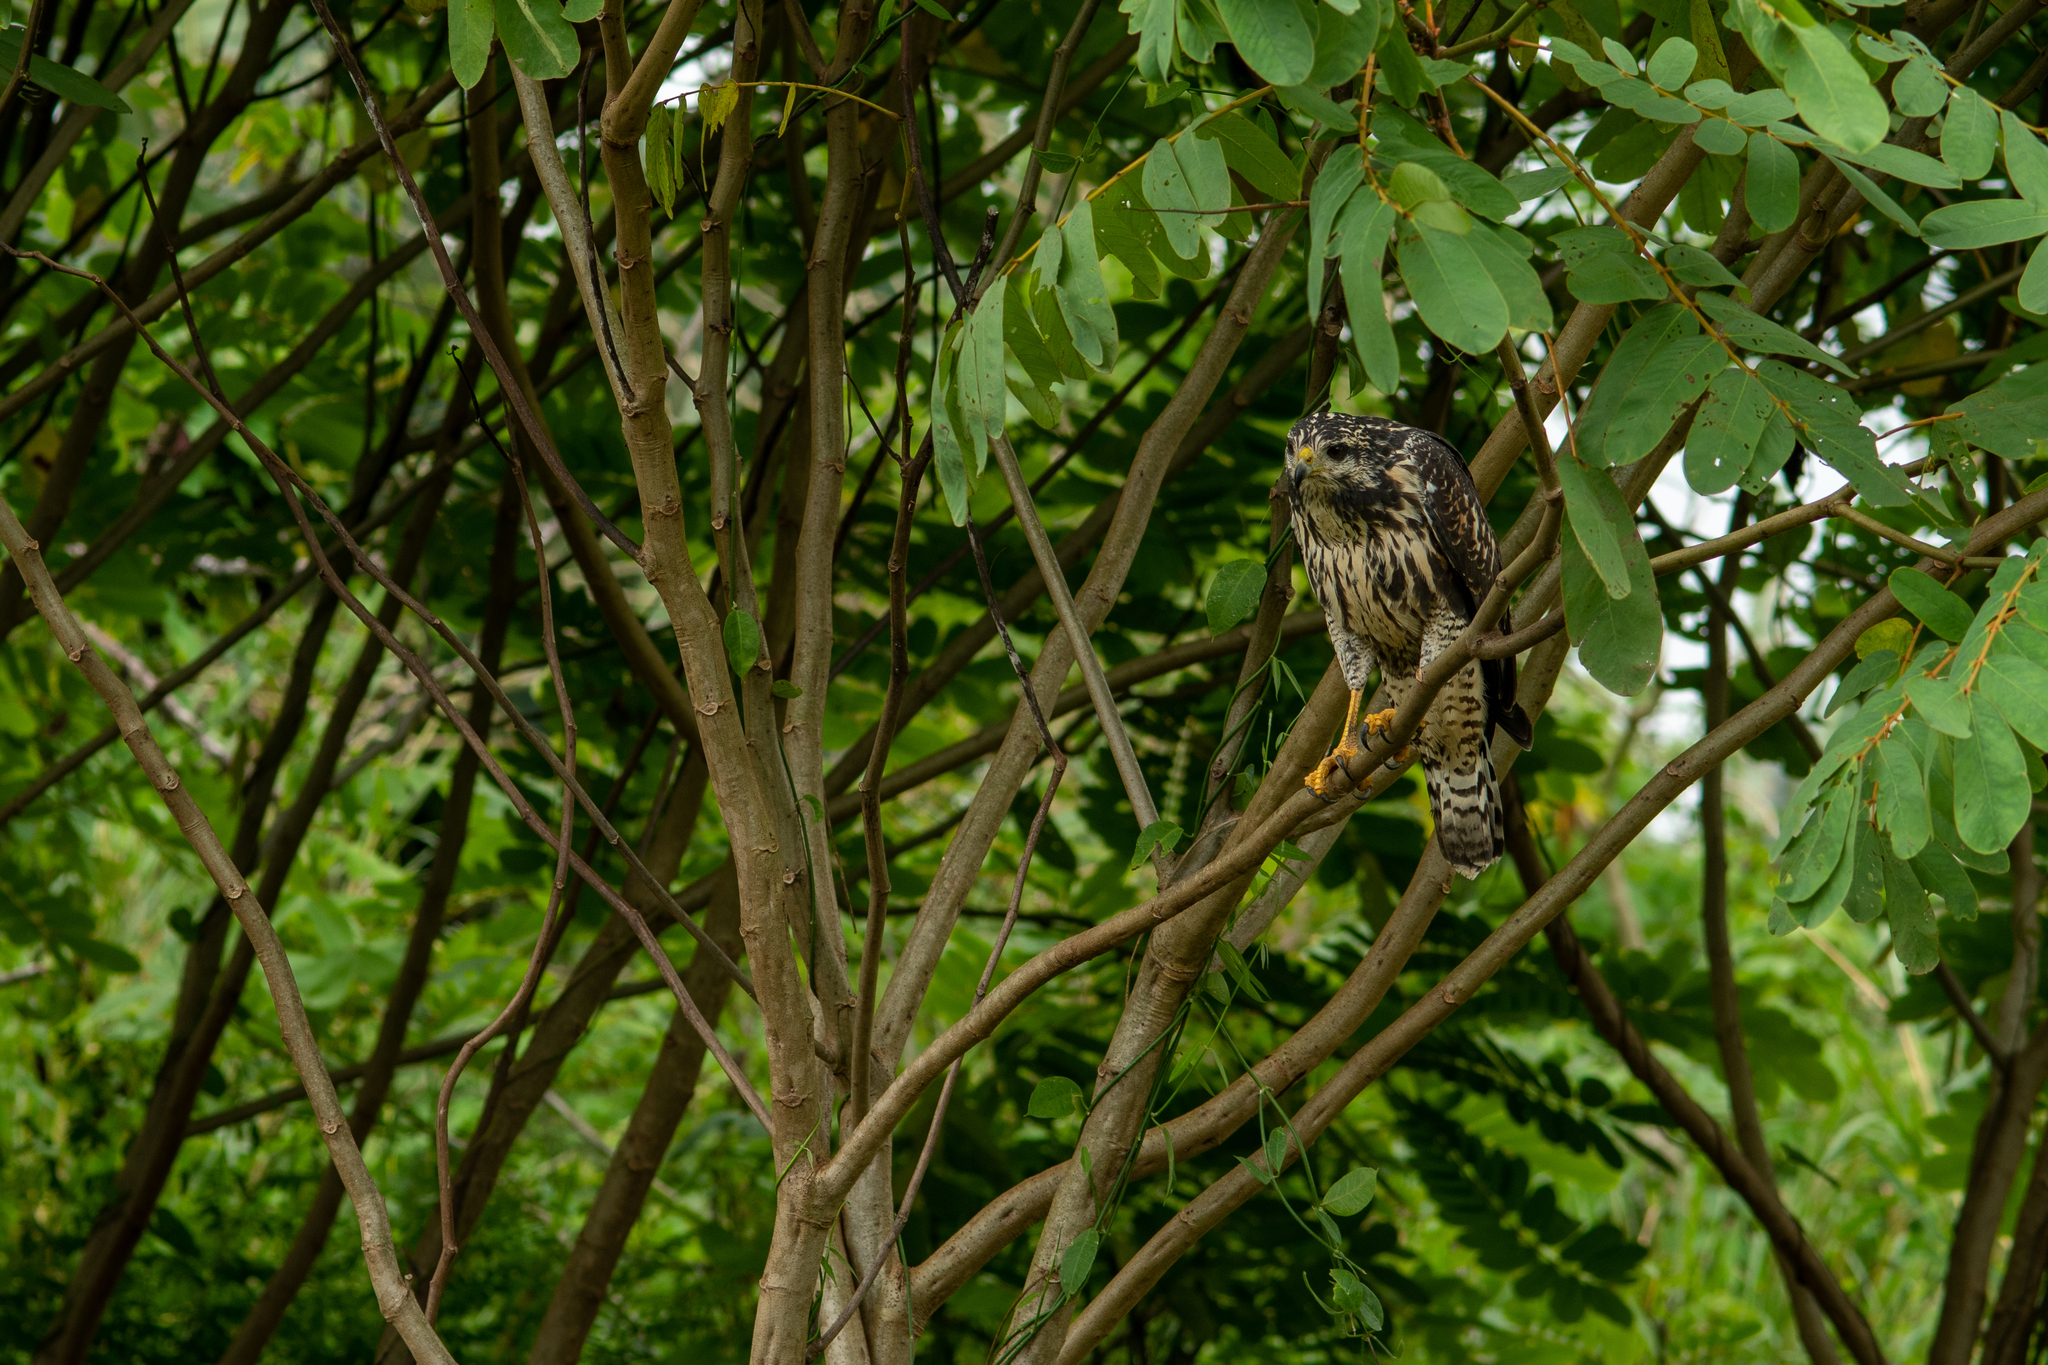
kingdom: Animalia
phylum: Chordata
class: Aves
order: Accipitriformes
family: Accipitridae
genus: Buteogallus
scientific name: Buteogallus anthracinus
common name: Common black hawk
